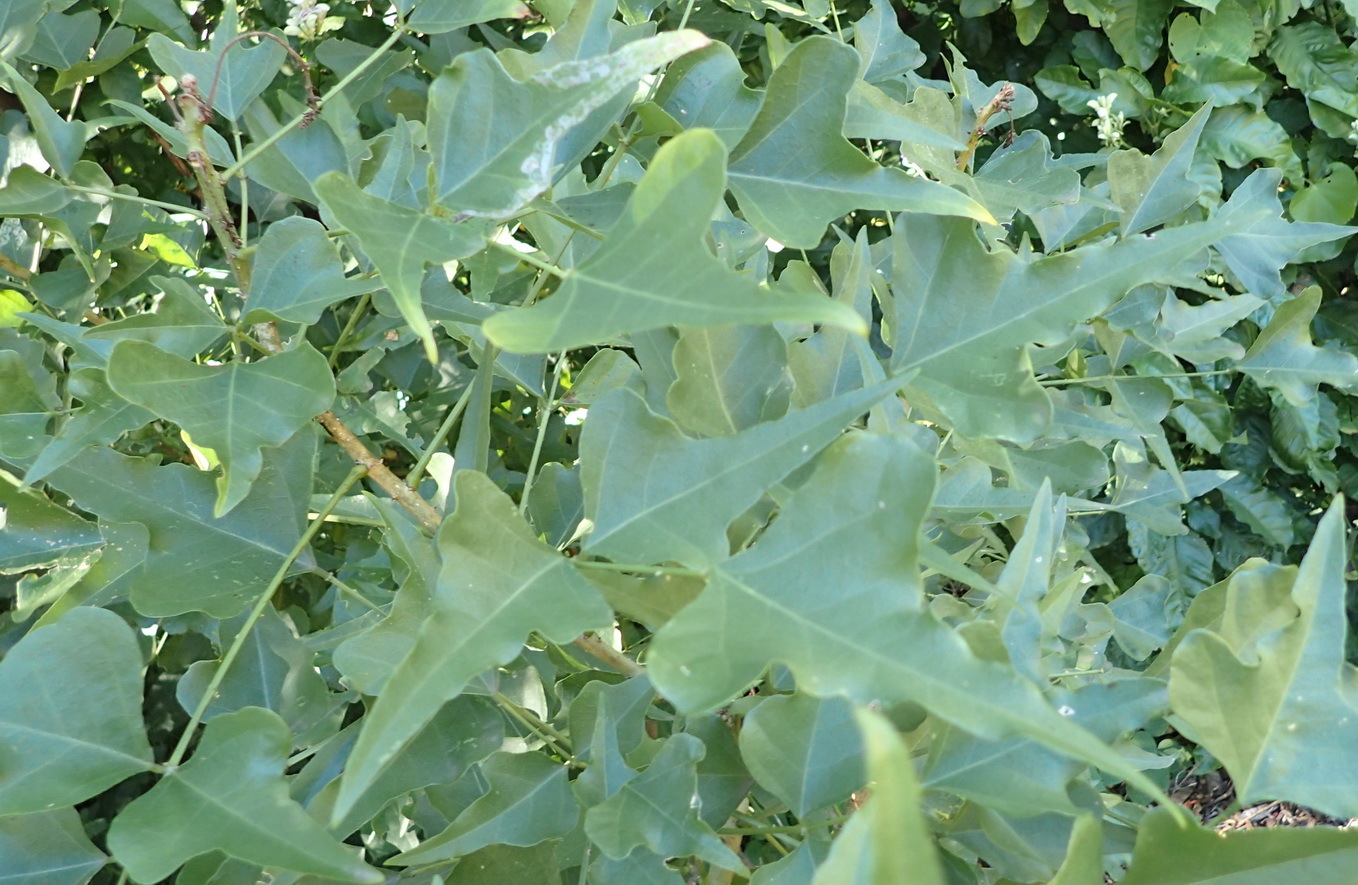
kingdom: Plantae
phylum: Tracheophyta
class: Magnoliopsida
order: Fabales
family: Fabaceae
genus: Erythrina
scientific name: Erythrina humeana
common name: Dwarf coral tree
